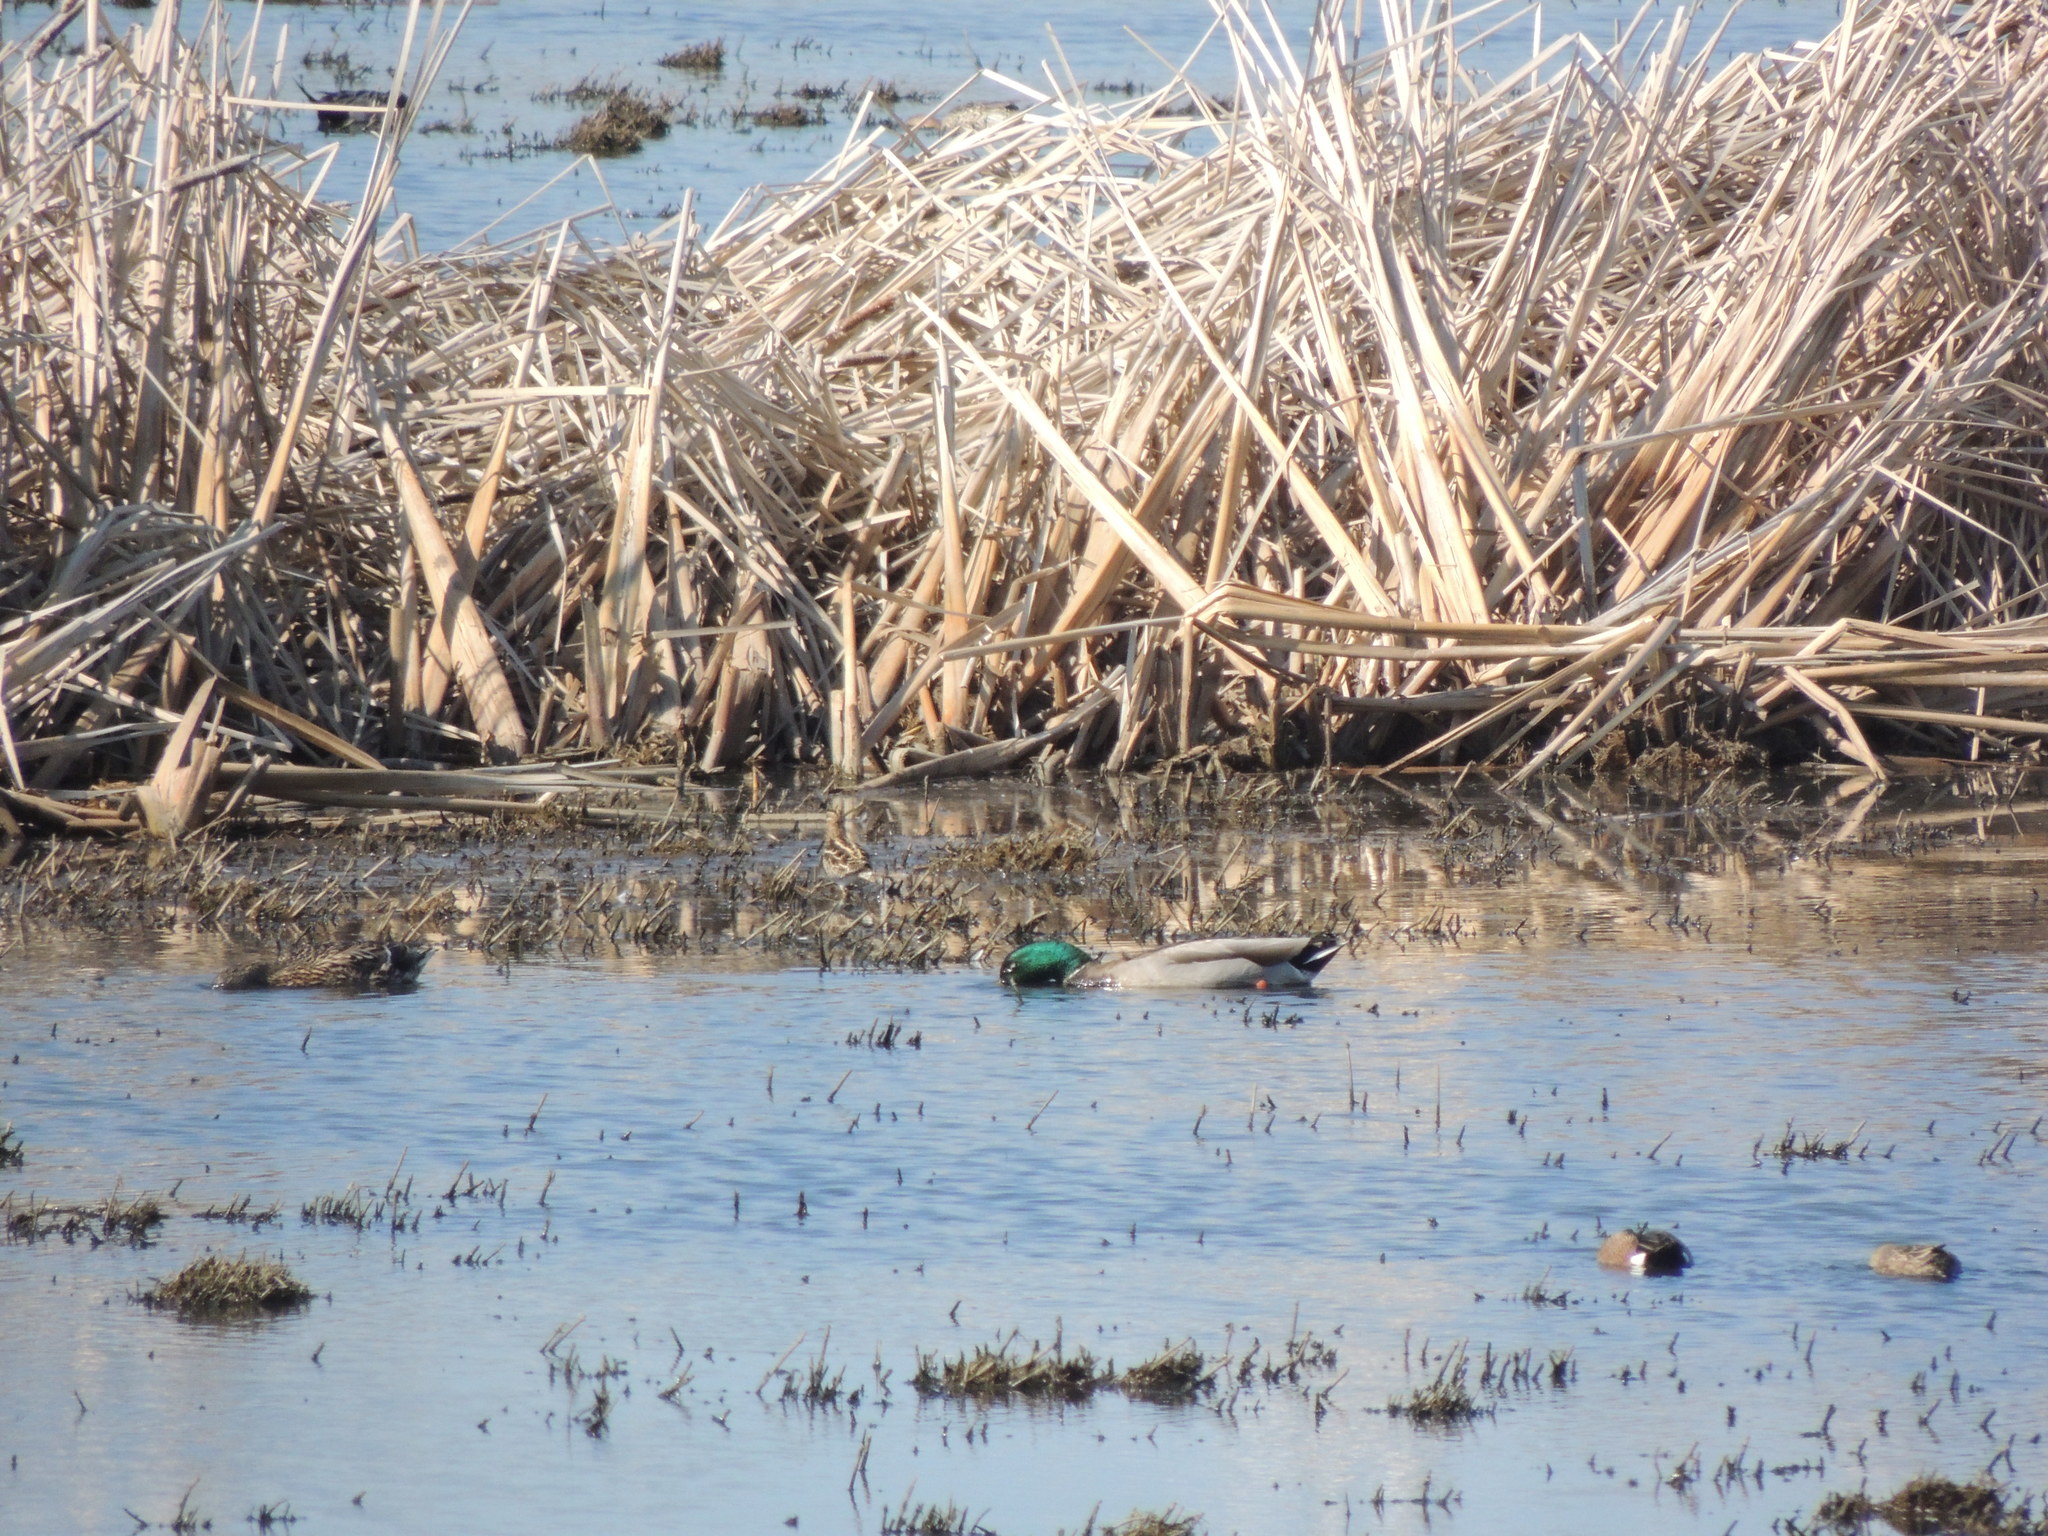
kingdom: Animalia
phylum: Chordata
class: Aves
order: Anseriformes
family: Anatidae
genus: Anas
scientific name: Anas platyrhynchos
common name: Mallard
